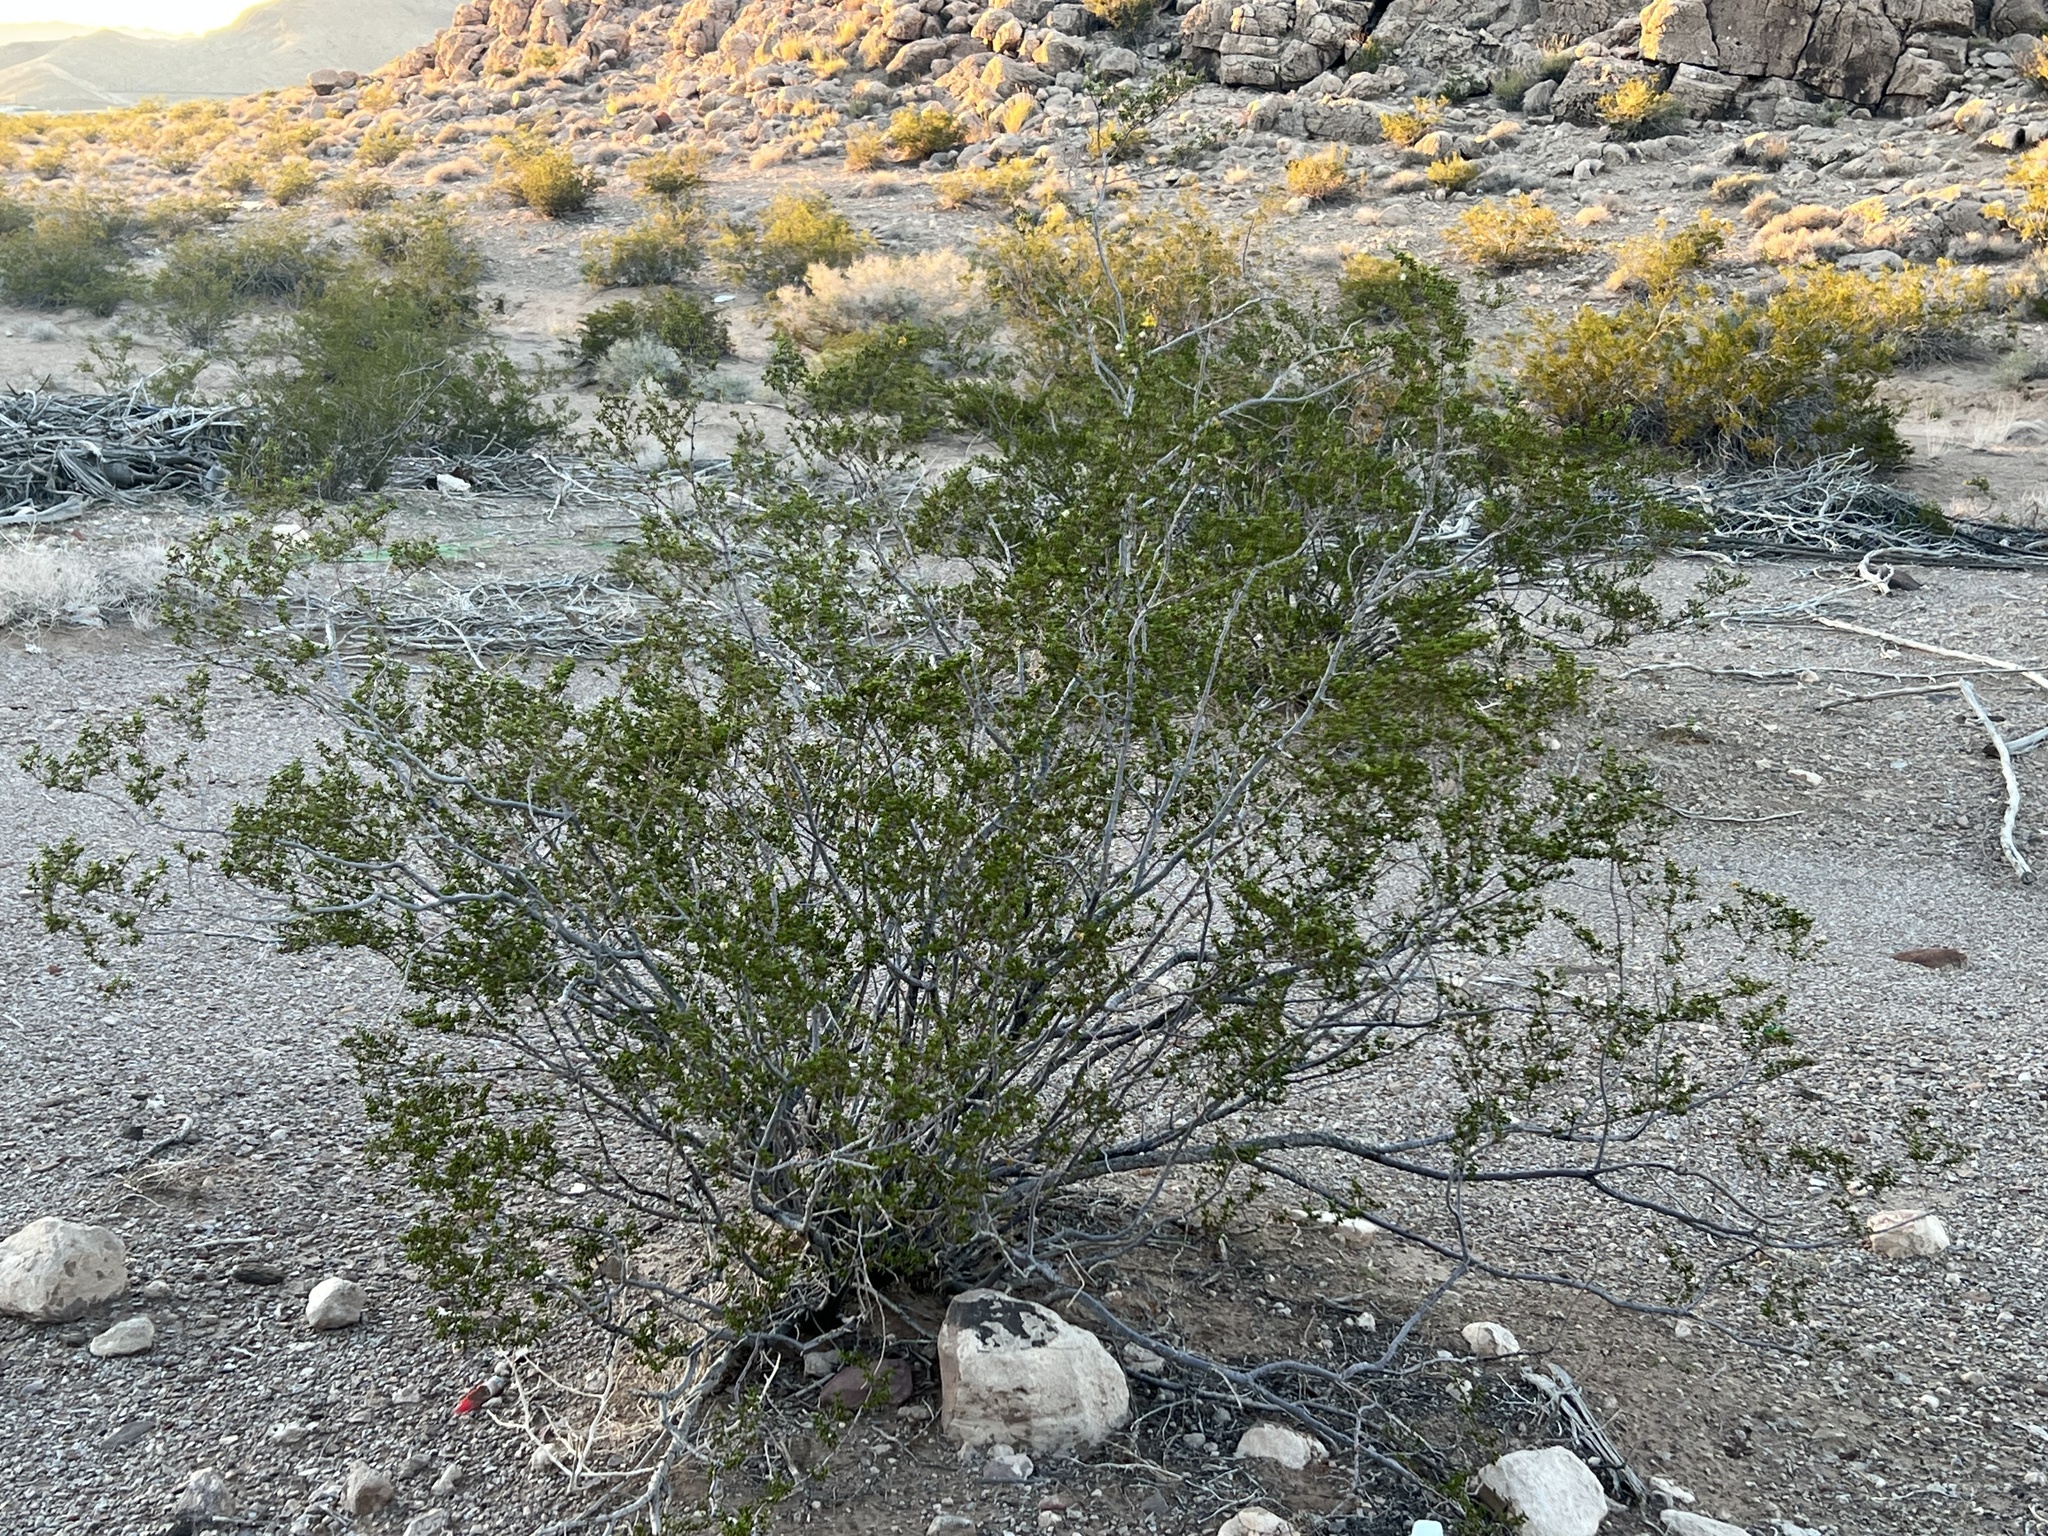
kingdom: Plantae
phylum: Tracheophyta
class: Magnoliopsida
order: Zygophyllales
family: Zygophyllaceae
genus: Larrea
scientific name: Larrea tridentata
